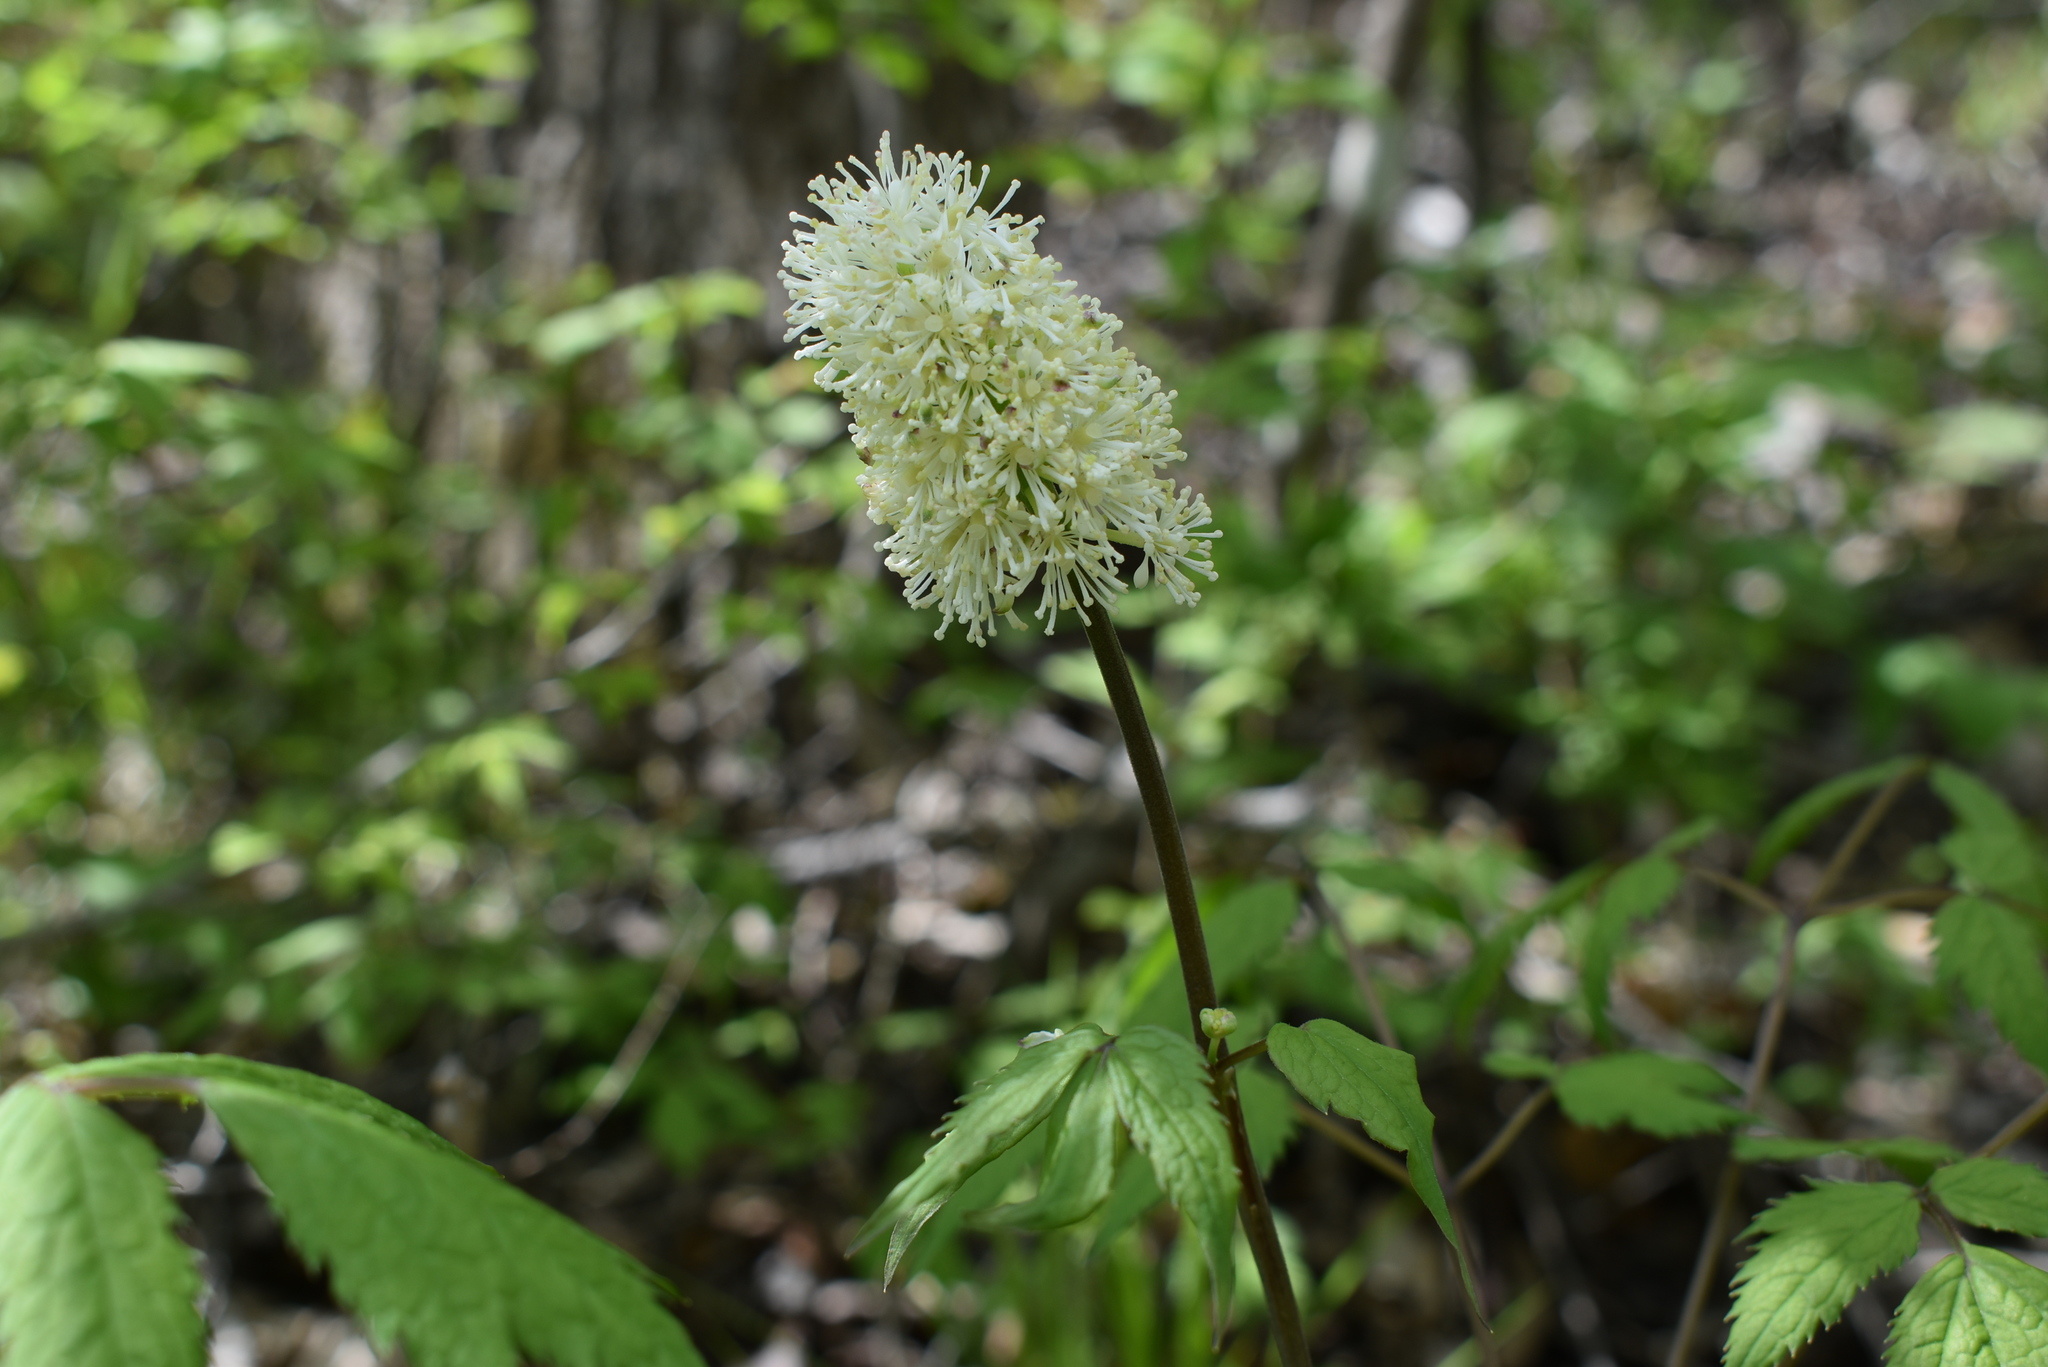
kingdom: Plantae
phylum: Tracheophyta
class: Magnoliopsida
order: Ranunculales
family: Ranunculaceae
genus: Actaea
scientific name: Actaea asiatica
